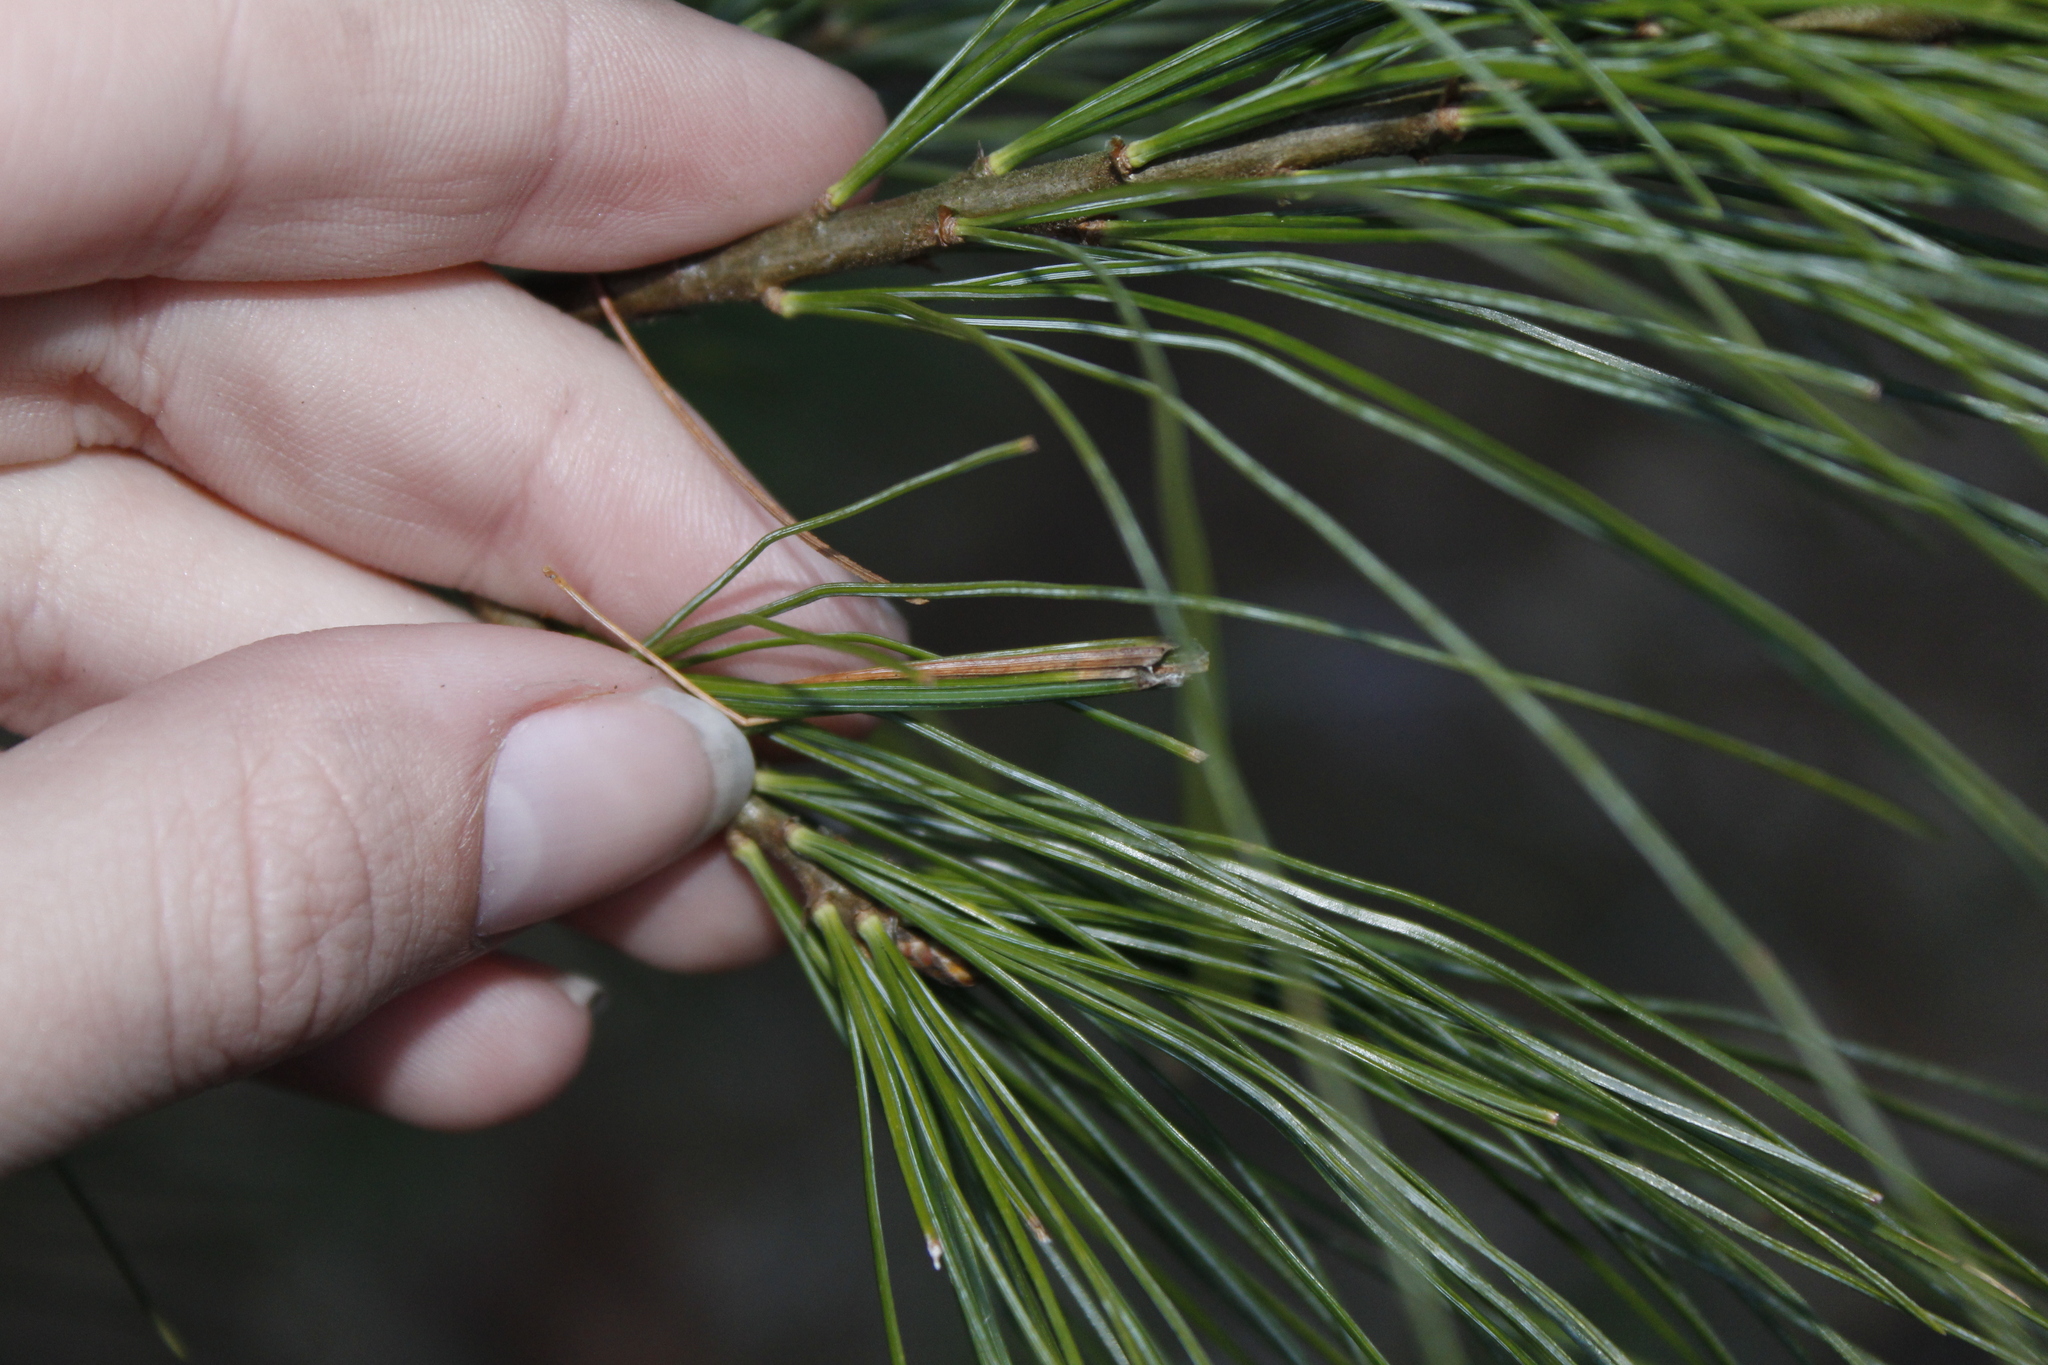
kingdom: Plantae
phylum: Tracheophyta
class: Pinopsida
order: Pinales
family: Pinaceae
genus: Pinus
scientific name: Pinus strobus
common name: Weymouth pine
